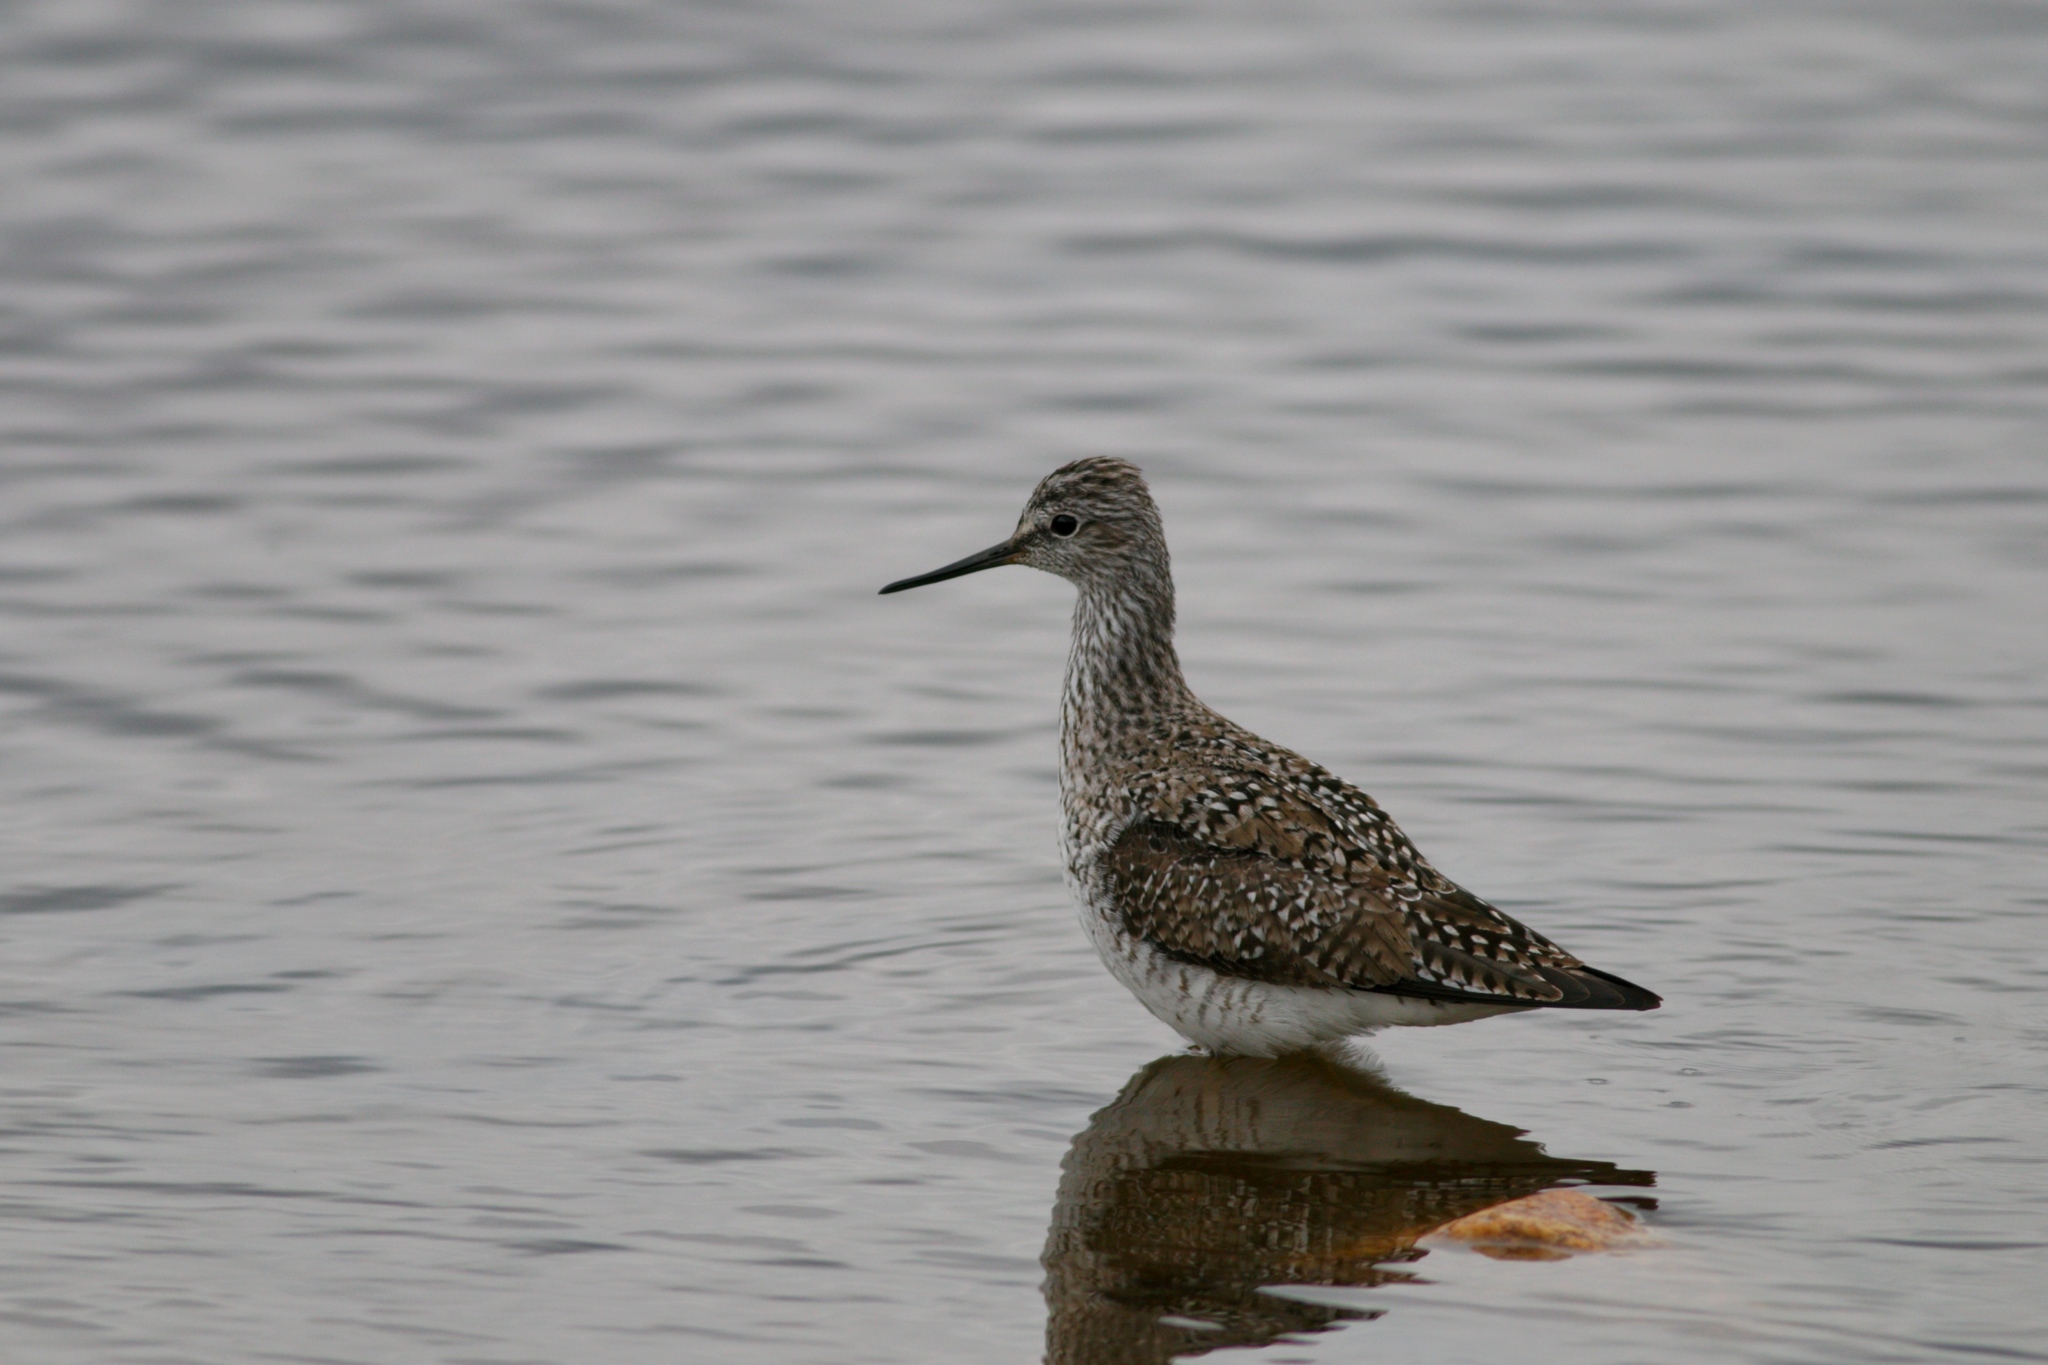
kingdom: Animalia
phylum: Chordata
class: Aves
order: Charadriiformes
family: Scolopacidae
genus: Tringa
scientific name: Tringa flavipes
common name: Lesser yellowlegs
